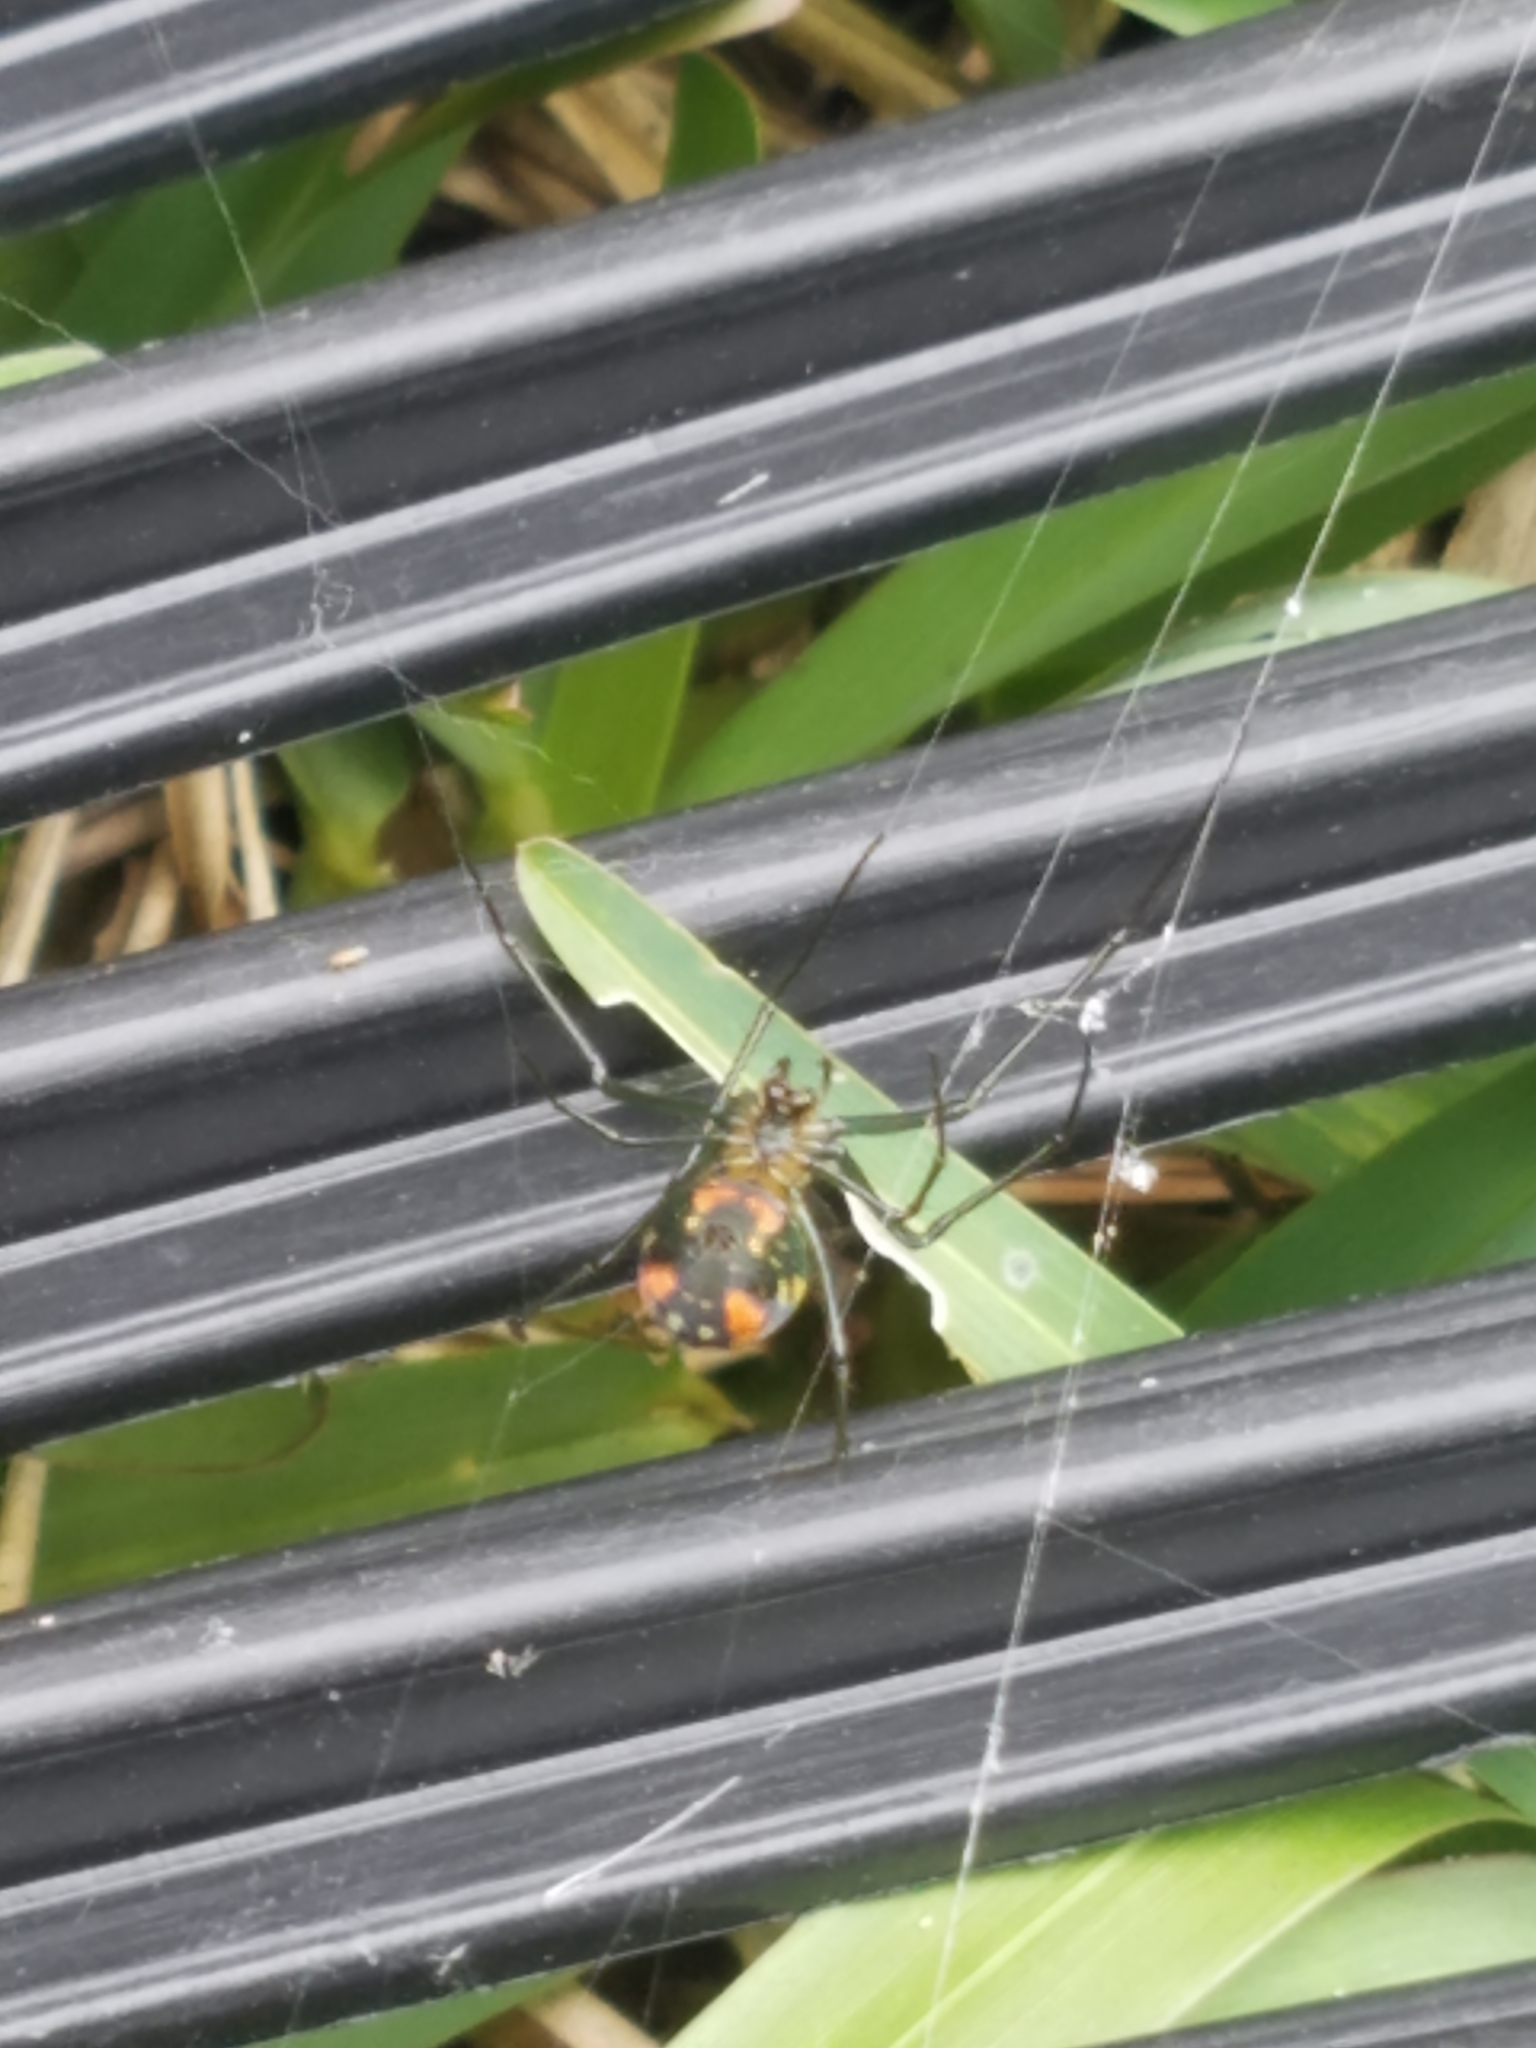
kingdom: Animalia
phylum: Arthropoda
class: Arachnida
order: Araneae
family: Tetragnathidae
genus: Leucauge
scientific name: Leucauge argyrobapta
